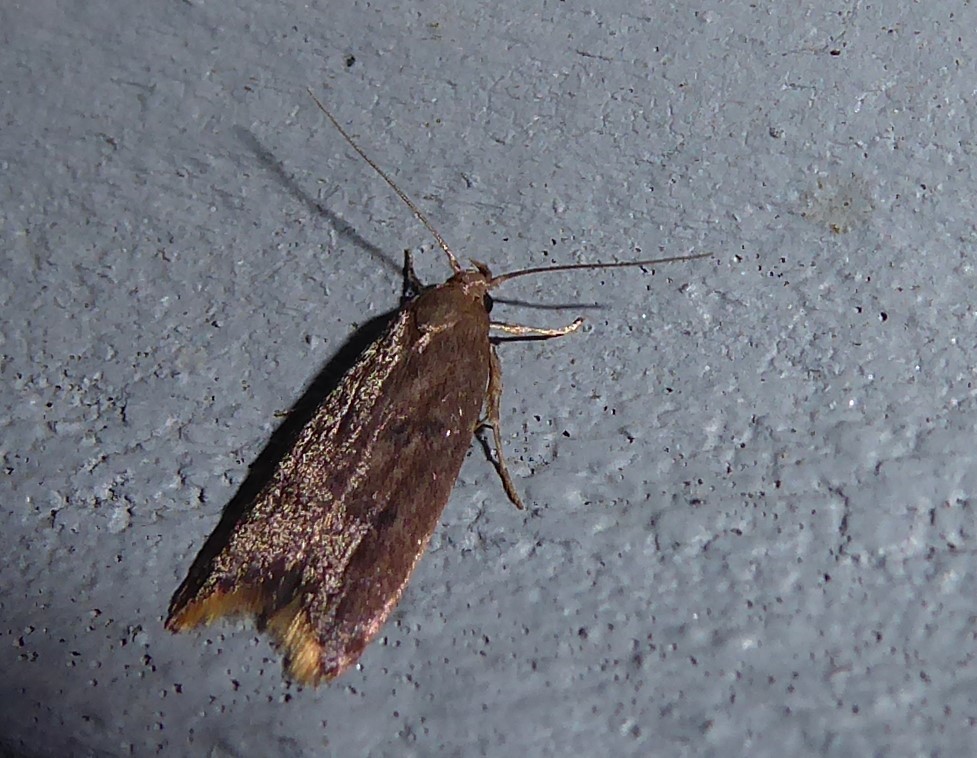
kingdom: Animalia
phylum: Arthropoda
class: Insecta
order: Lepidoptera
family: Oecophoridae
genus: Tachystola
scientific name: Tachystola acroxantha
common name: Ruddy streak
